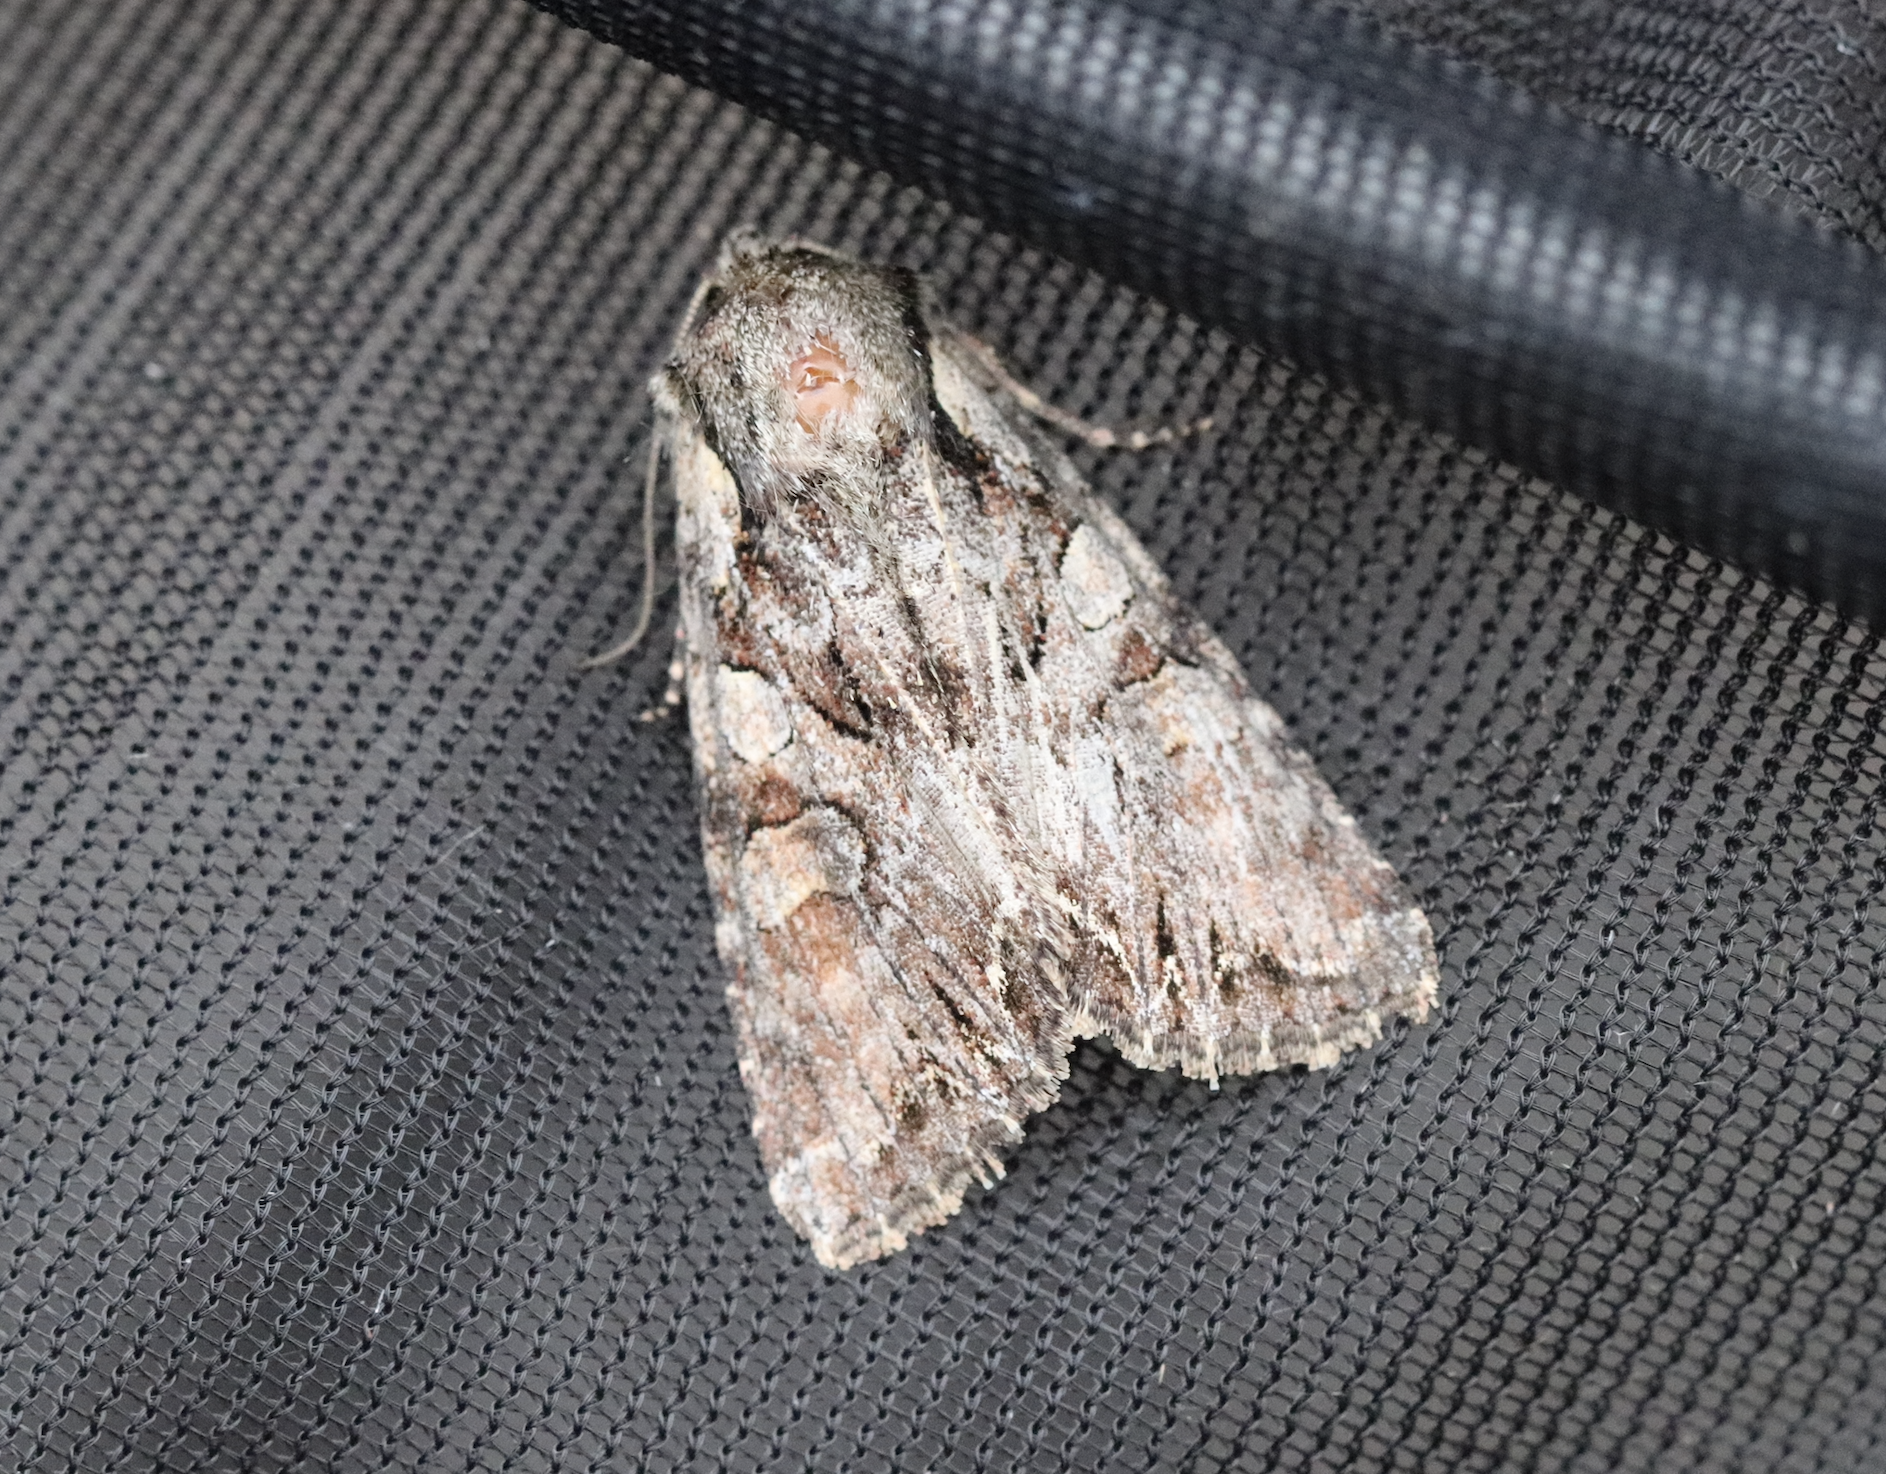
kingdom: Animalia
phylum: Arthropoda
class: Insecta
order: Lepidoptera
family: Noctuidae
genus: Lacanobia
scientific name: Lacanobia contigua
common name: Beautiful brocade
